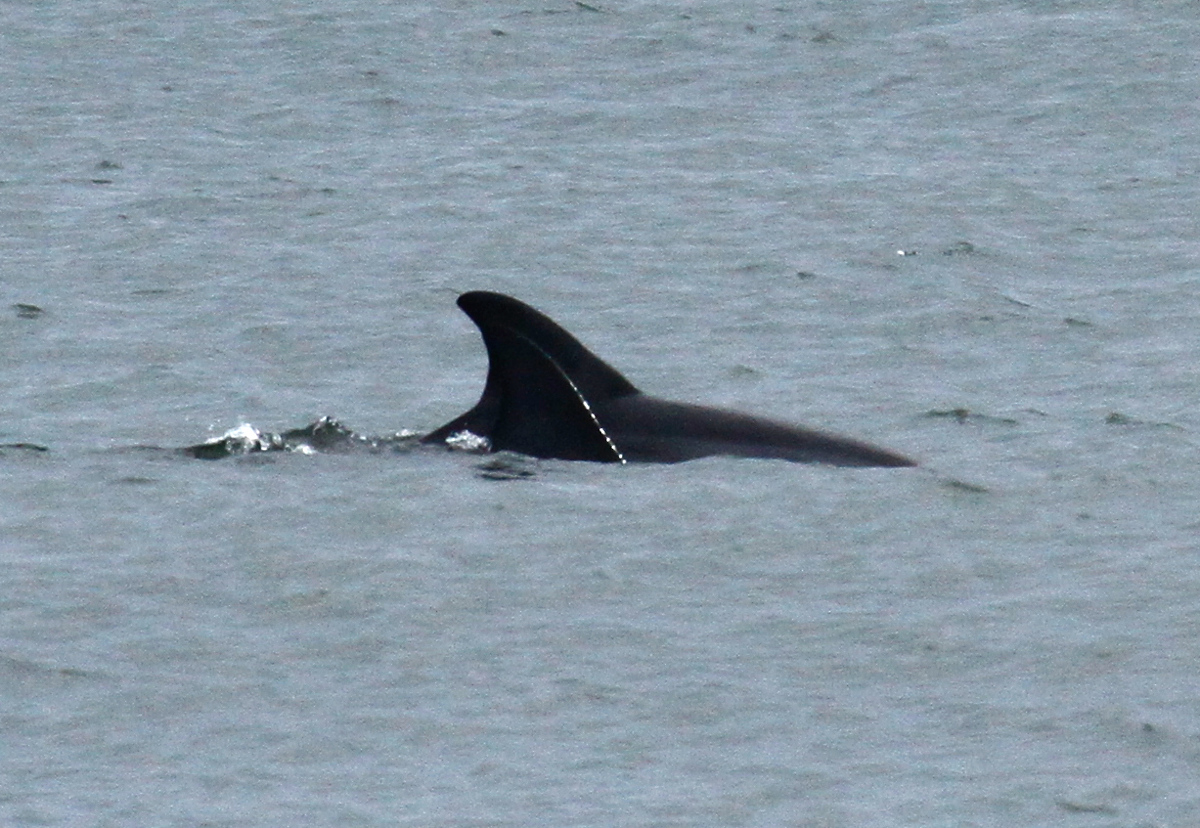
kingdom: Animalia
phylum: Chordata
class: Mammalia
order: Cetacea
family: Delphinidae
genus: Tursiops
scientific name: Tursiops truncatus
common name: Bottlenose dolphin
